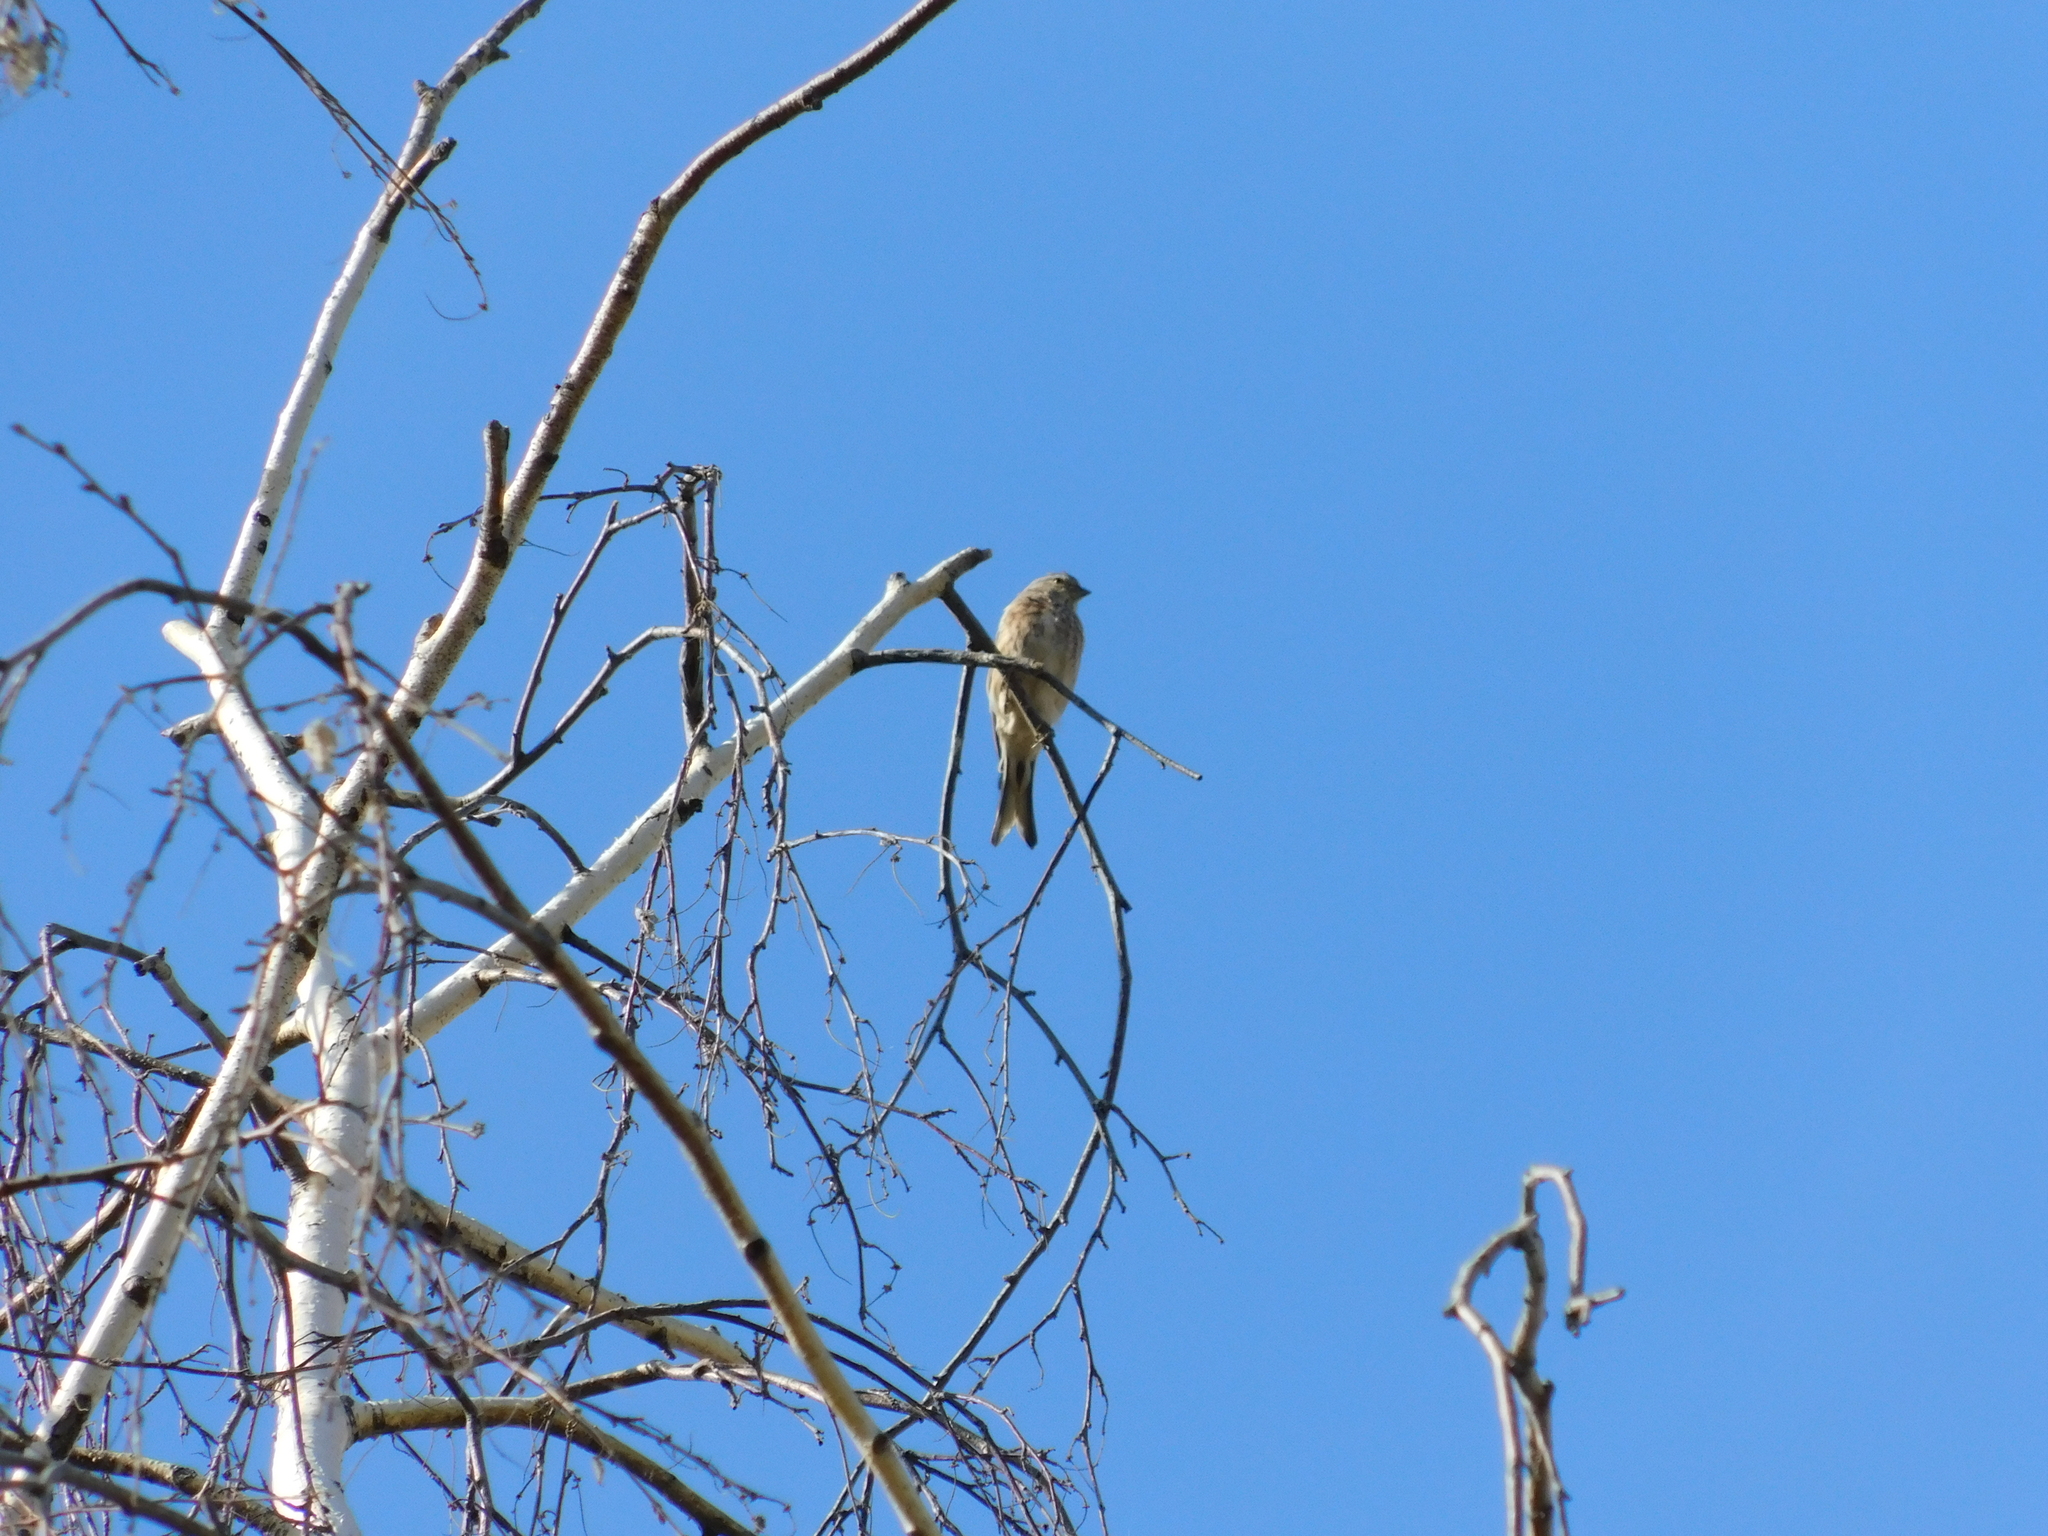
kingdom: Animalia
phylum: Chordata
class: Aves
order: Passeriformes
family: Fringillidae
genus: Linaria
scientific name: Linaria cannabina
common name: Common linnet
